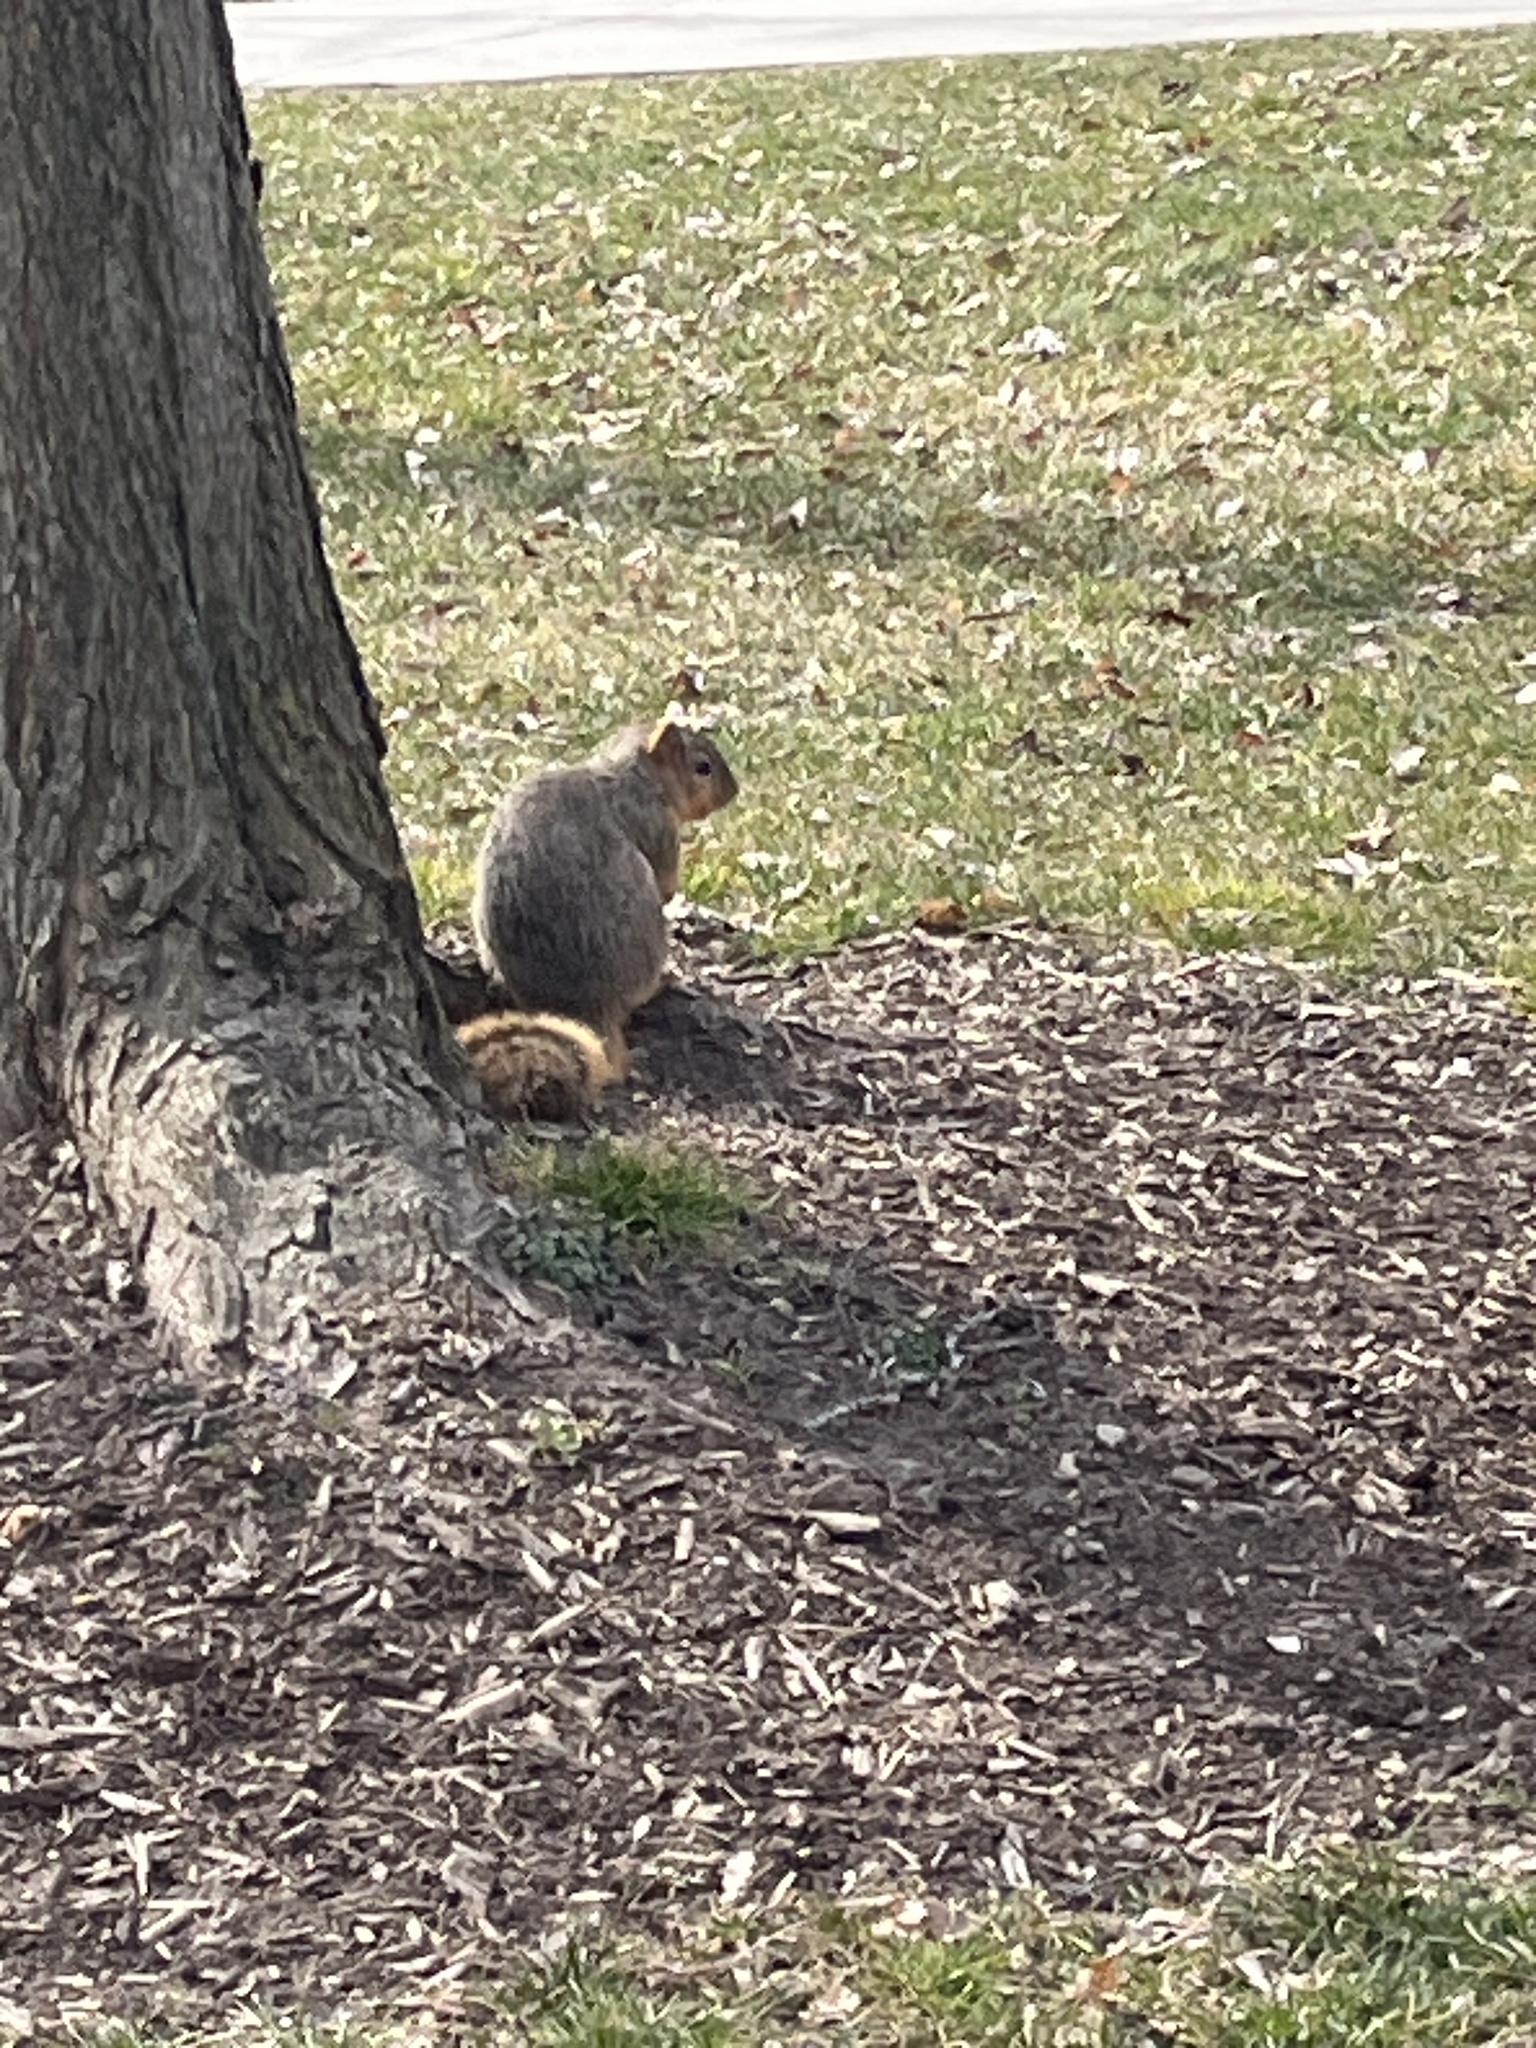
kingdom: Animalia
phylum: Chordata
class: Mammalia
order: Rodentia
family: Sciuridae
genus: Sciurus
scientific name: Sciurus niger
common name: Fox squirrel
